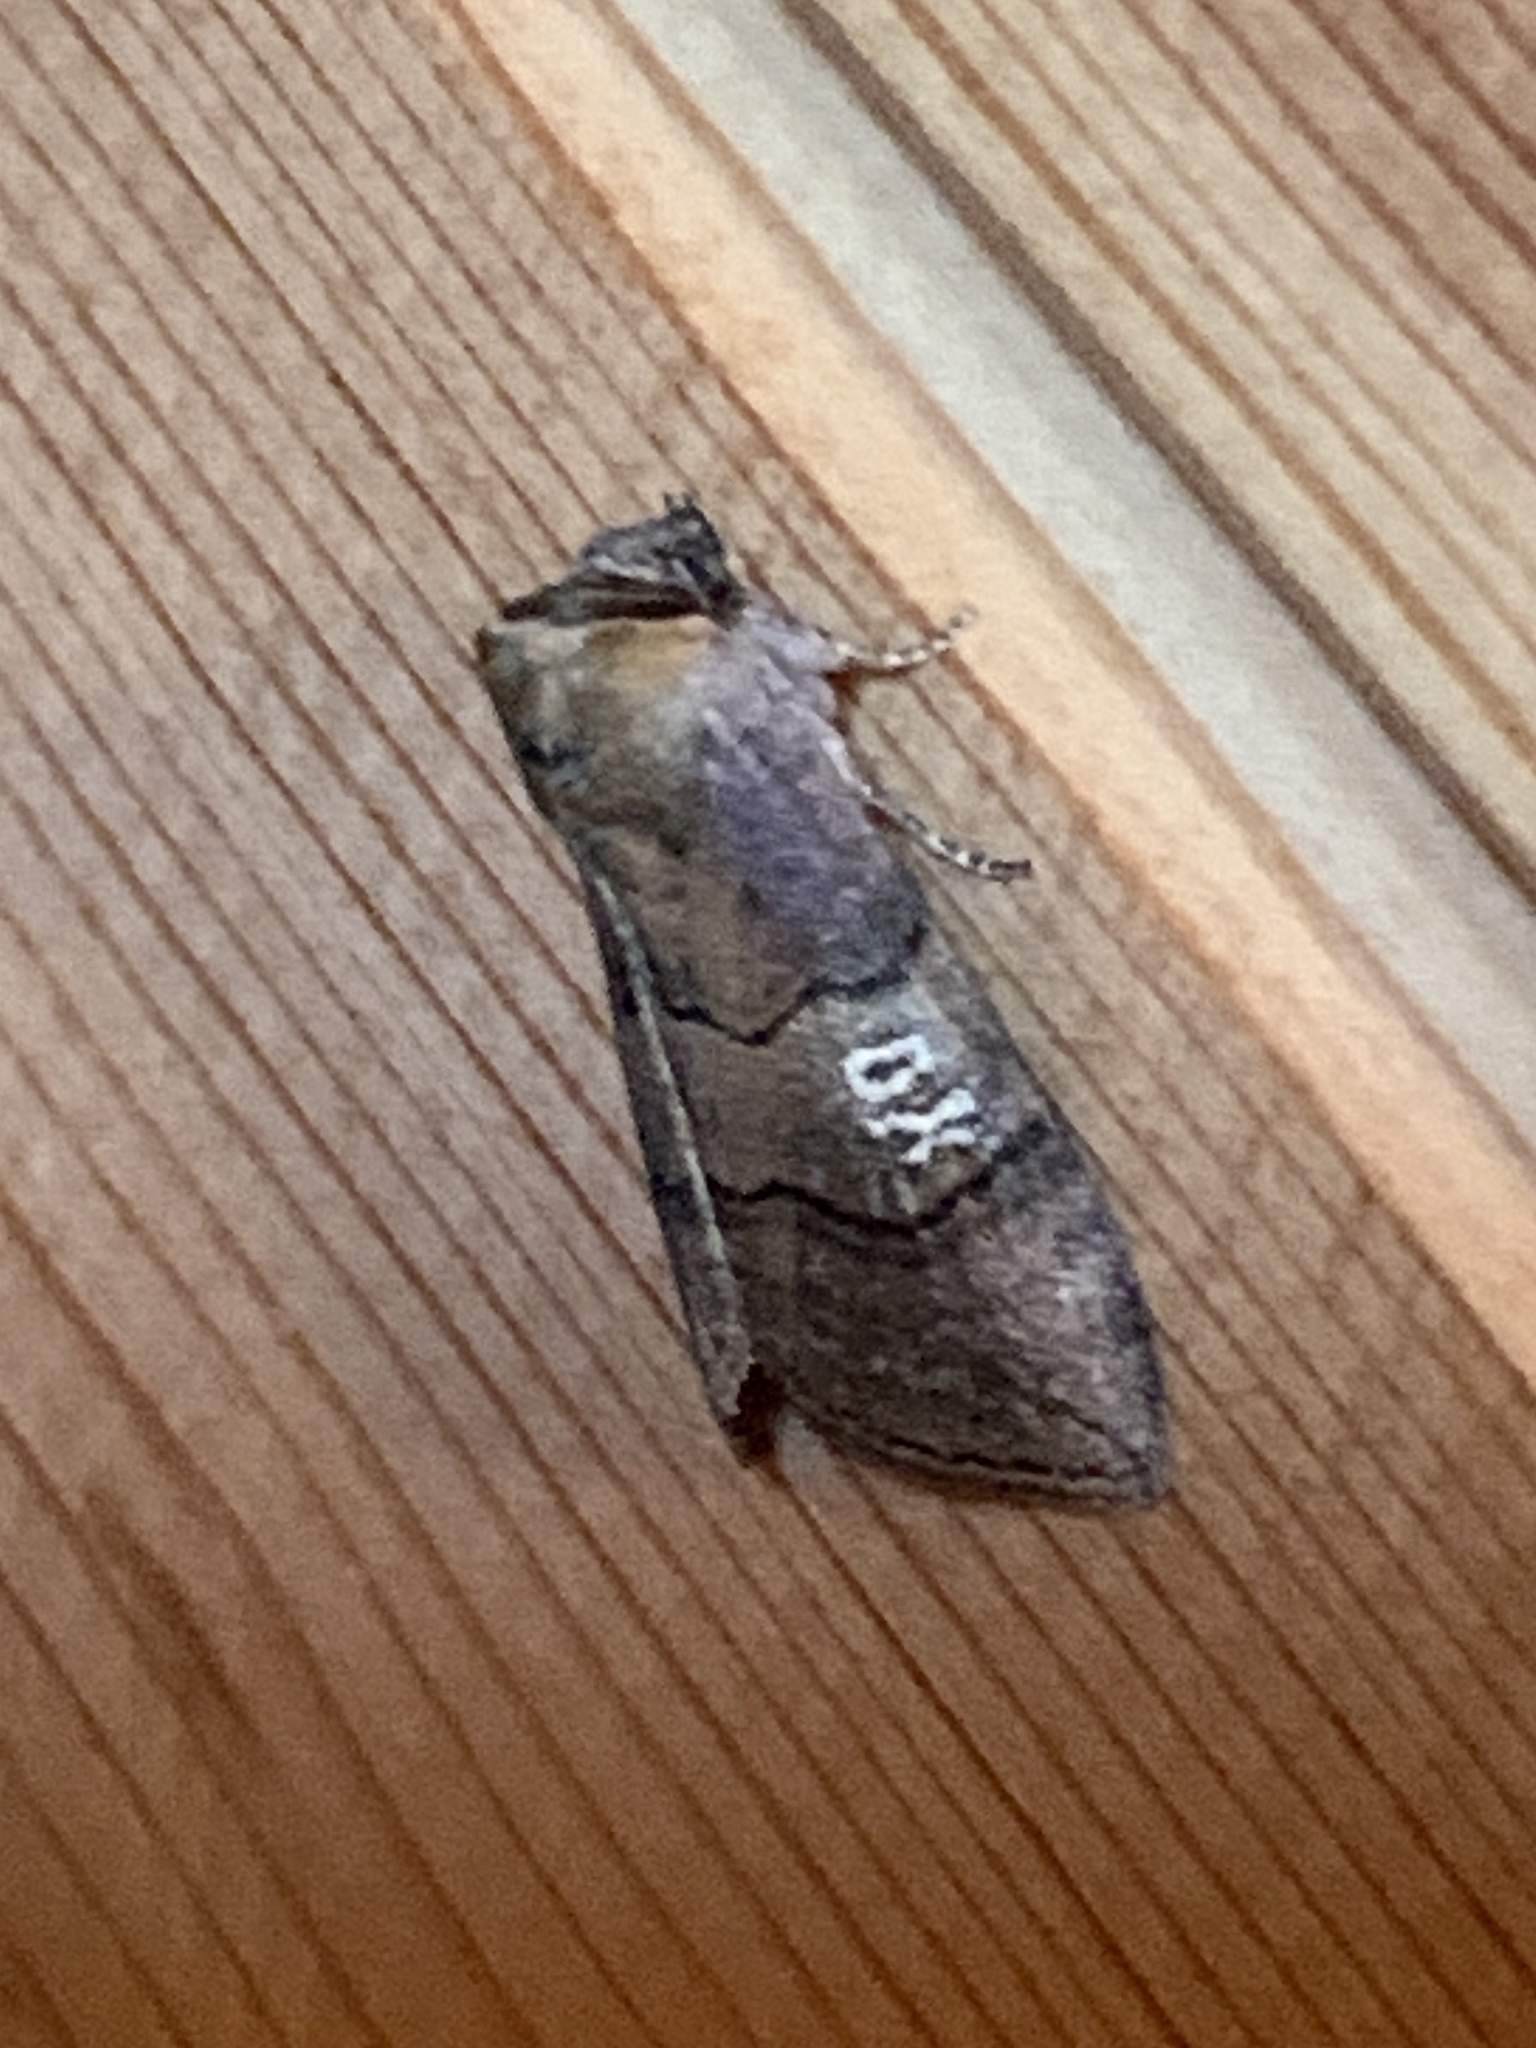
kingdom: Animalia
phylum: Arthropoda
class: Insecta
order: Lepidoptera
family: Drepanidae
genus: Tethea
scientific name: Tethea ocularis
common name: Figure of eighty
